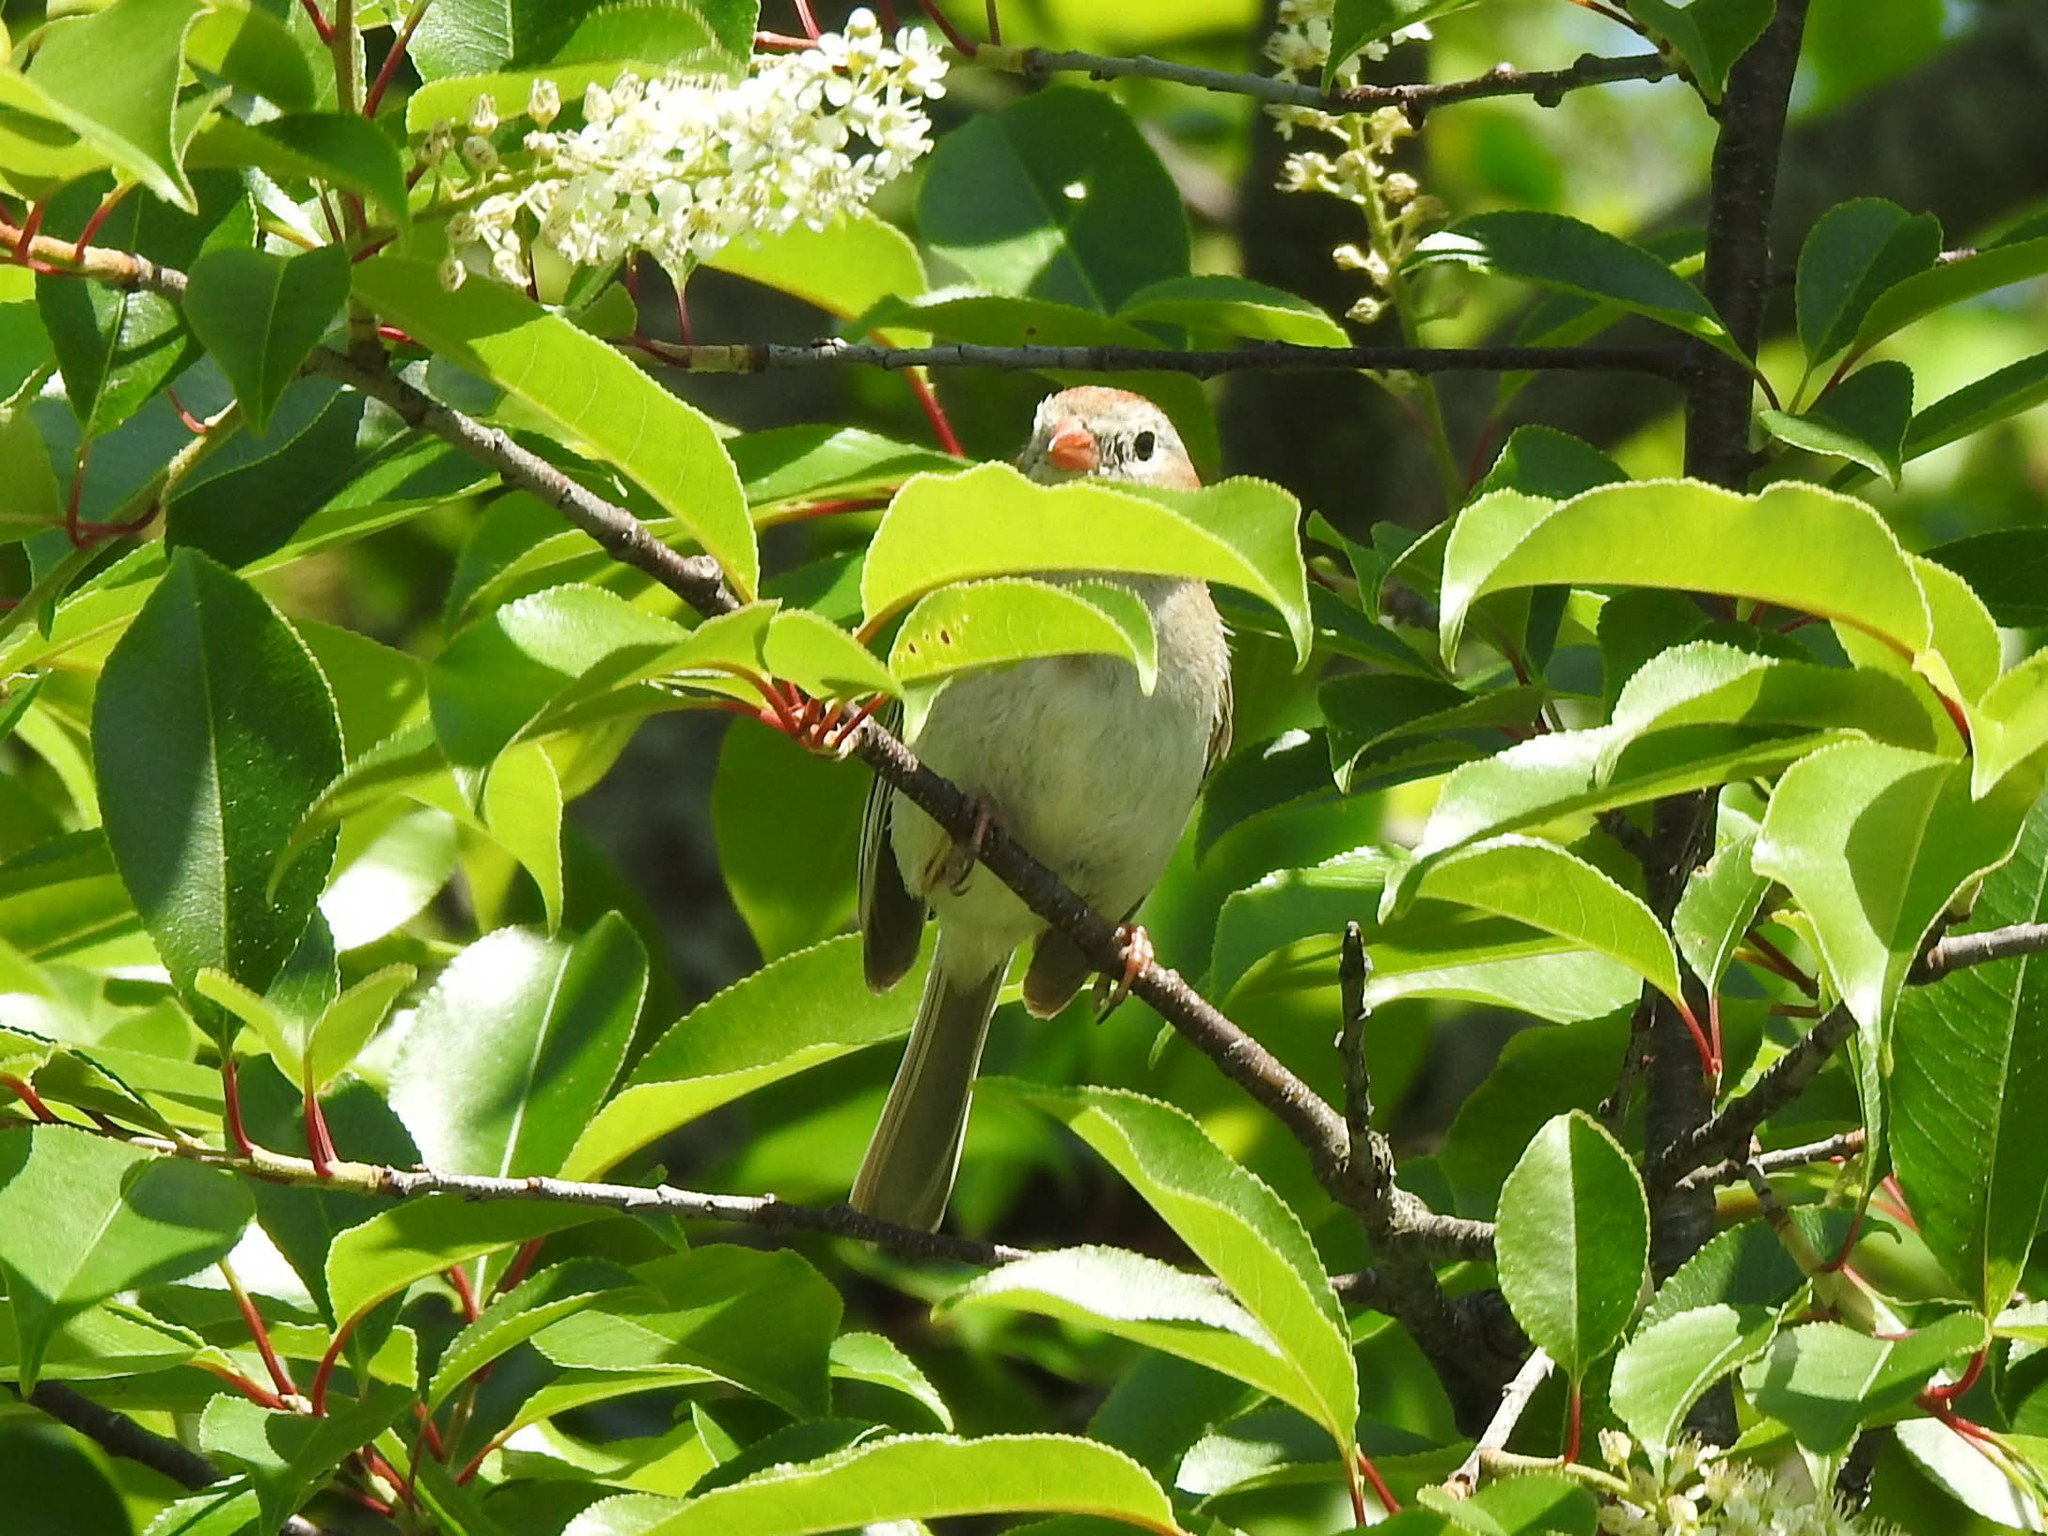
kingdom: Animalia
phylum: Chordata
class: Aves
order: Passeriformes
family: Passerellidae
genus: Spizella
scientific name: Spizella pusilla
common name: Field sparrow
